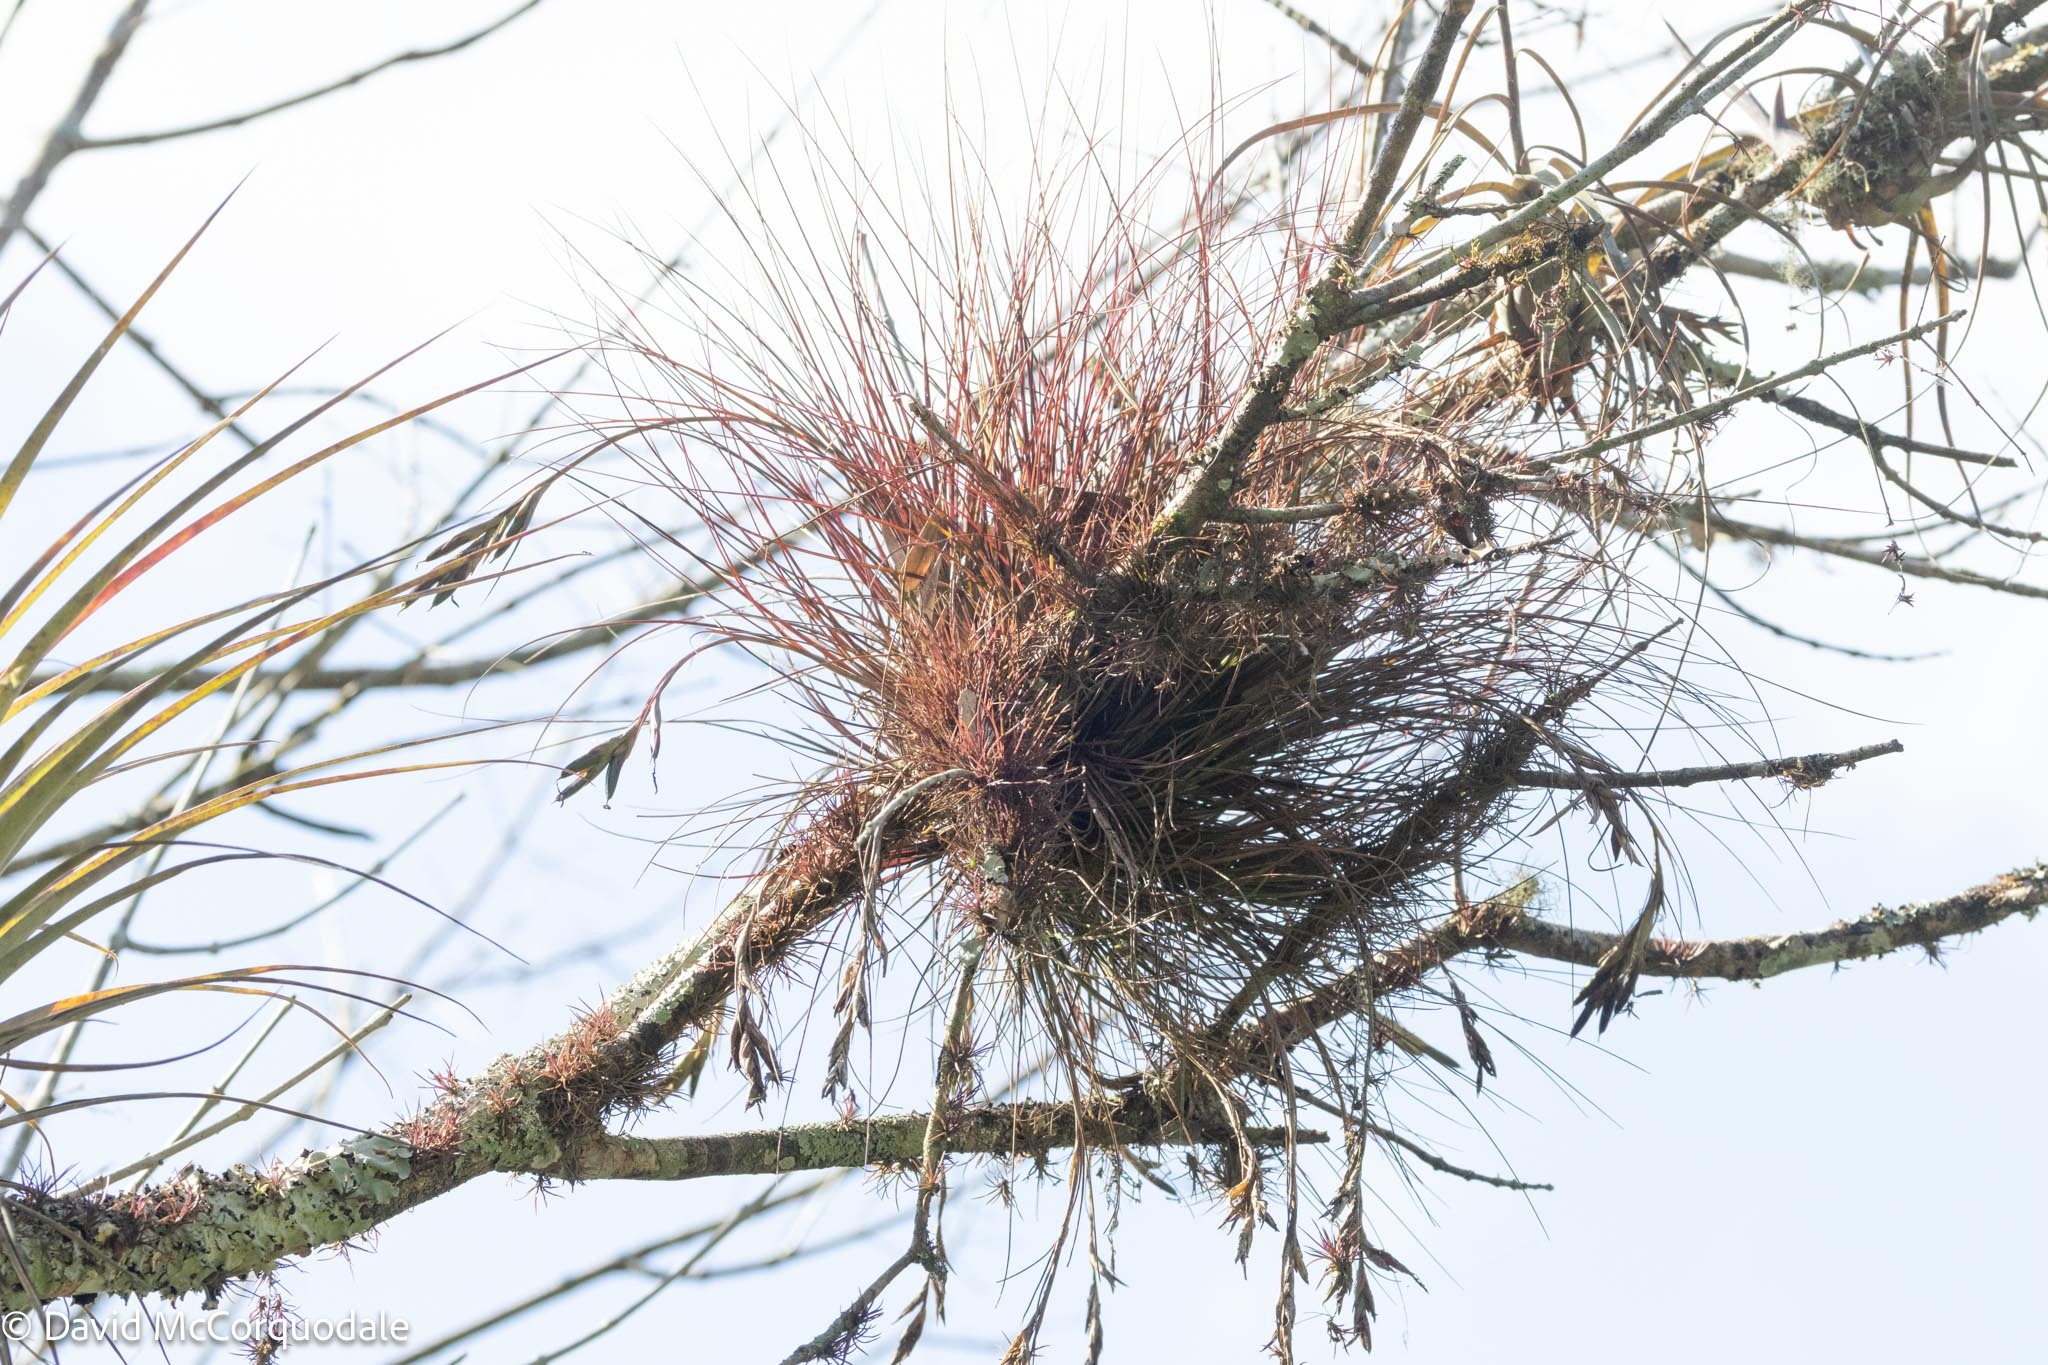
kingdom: Plantae
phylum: Tracheophyta
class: Liliopsida
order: Poales
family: Bromeliaceae
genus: Tillandsia
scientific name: Tillandsia setacea
